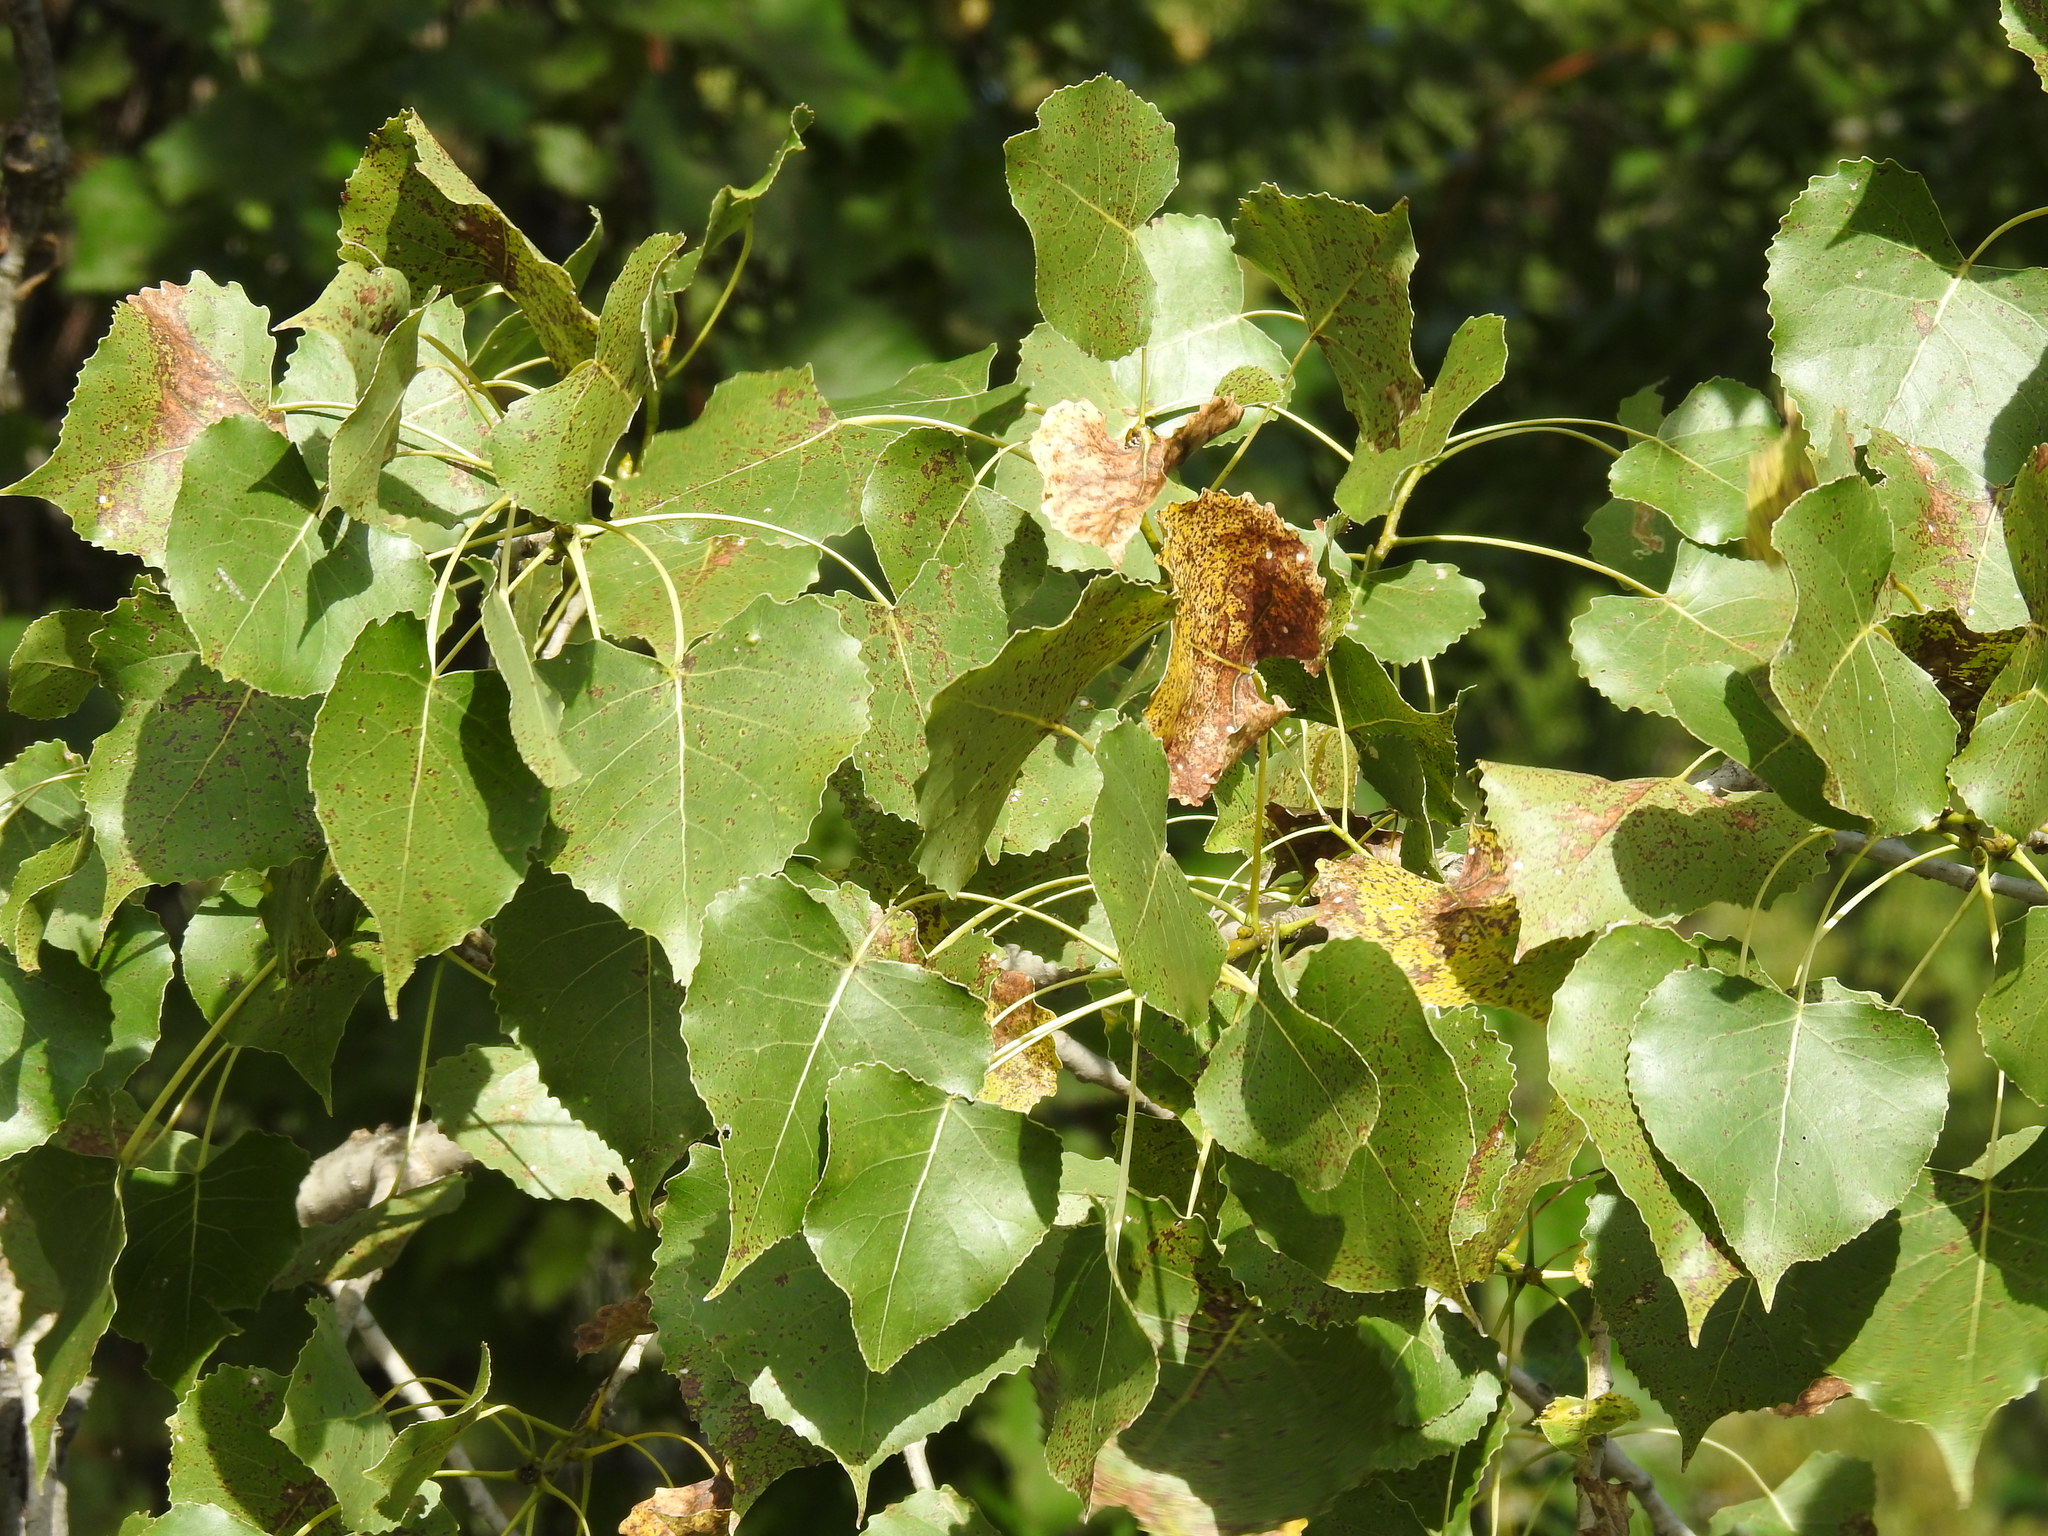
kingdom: Plantae
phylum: Tracheophyta
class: Magnoliopsida
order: Malpighiales
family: Salicaceae
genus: Populus
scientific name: Populus deltoides
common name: Eastern cottonwood
